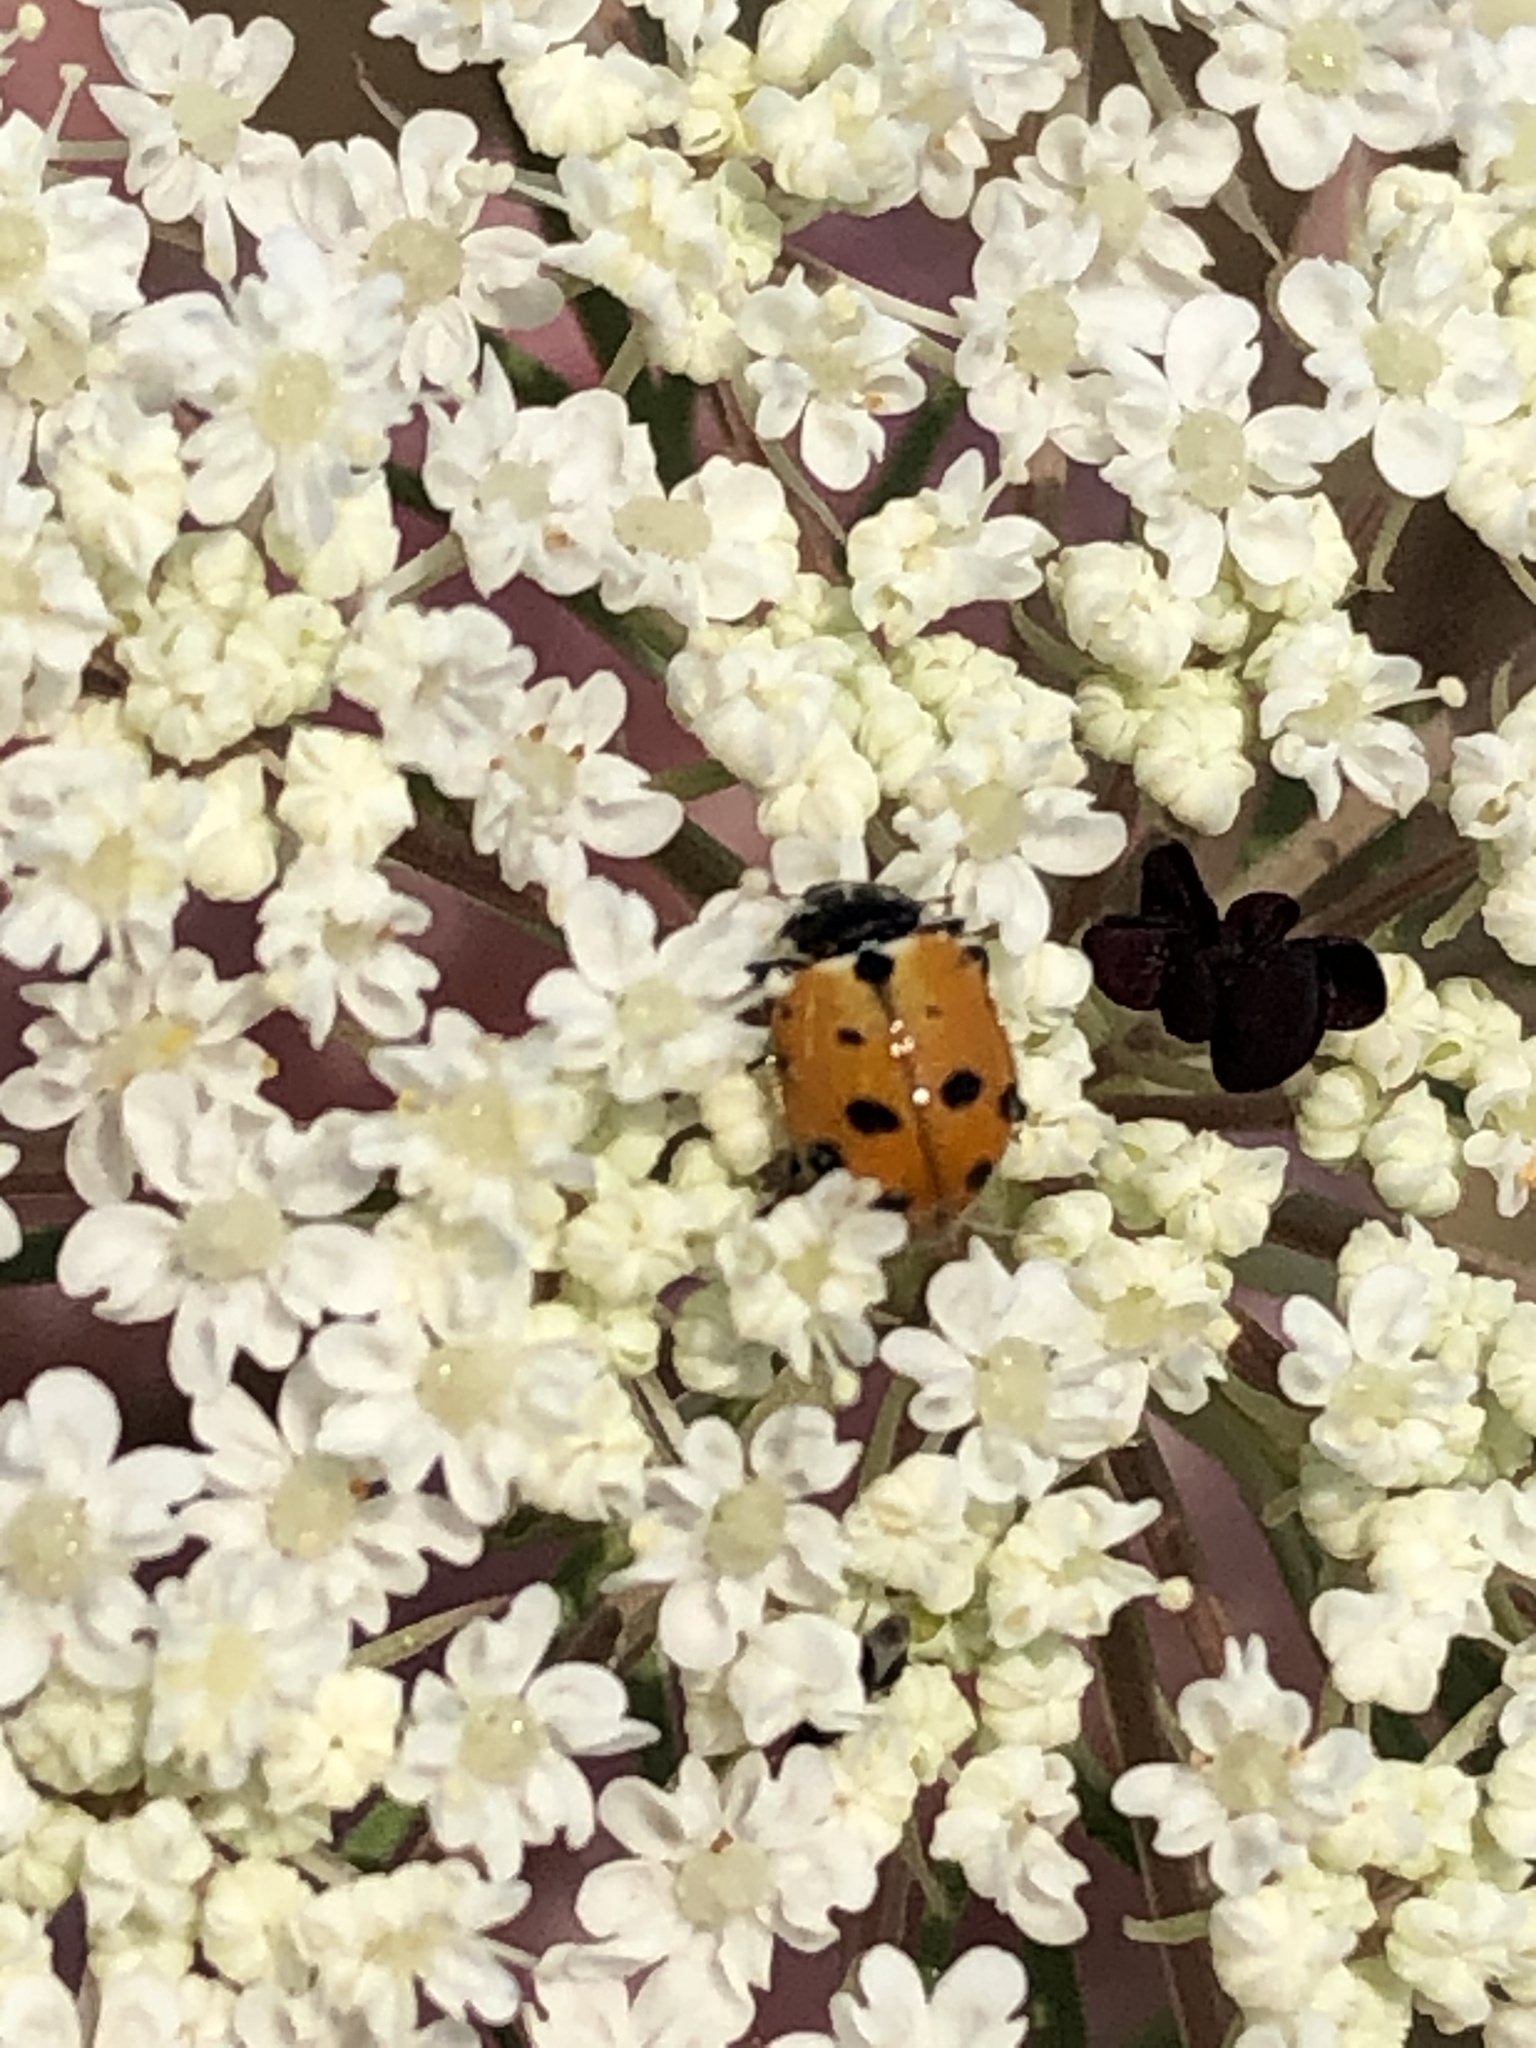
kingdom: Animalia
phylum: Arthropoda
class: Insecta
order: Coleoptera
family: Coccinellidae
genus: Hippodamia
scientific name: Hippodamia variegata
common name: Ladybird beetle
